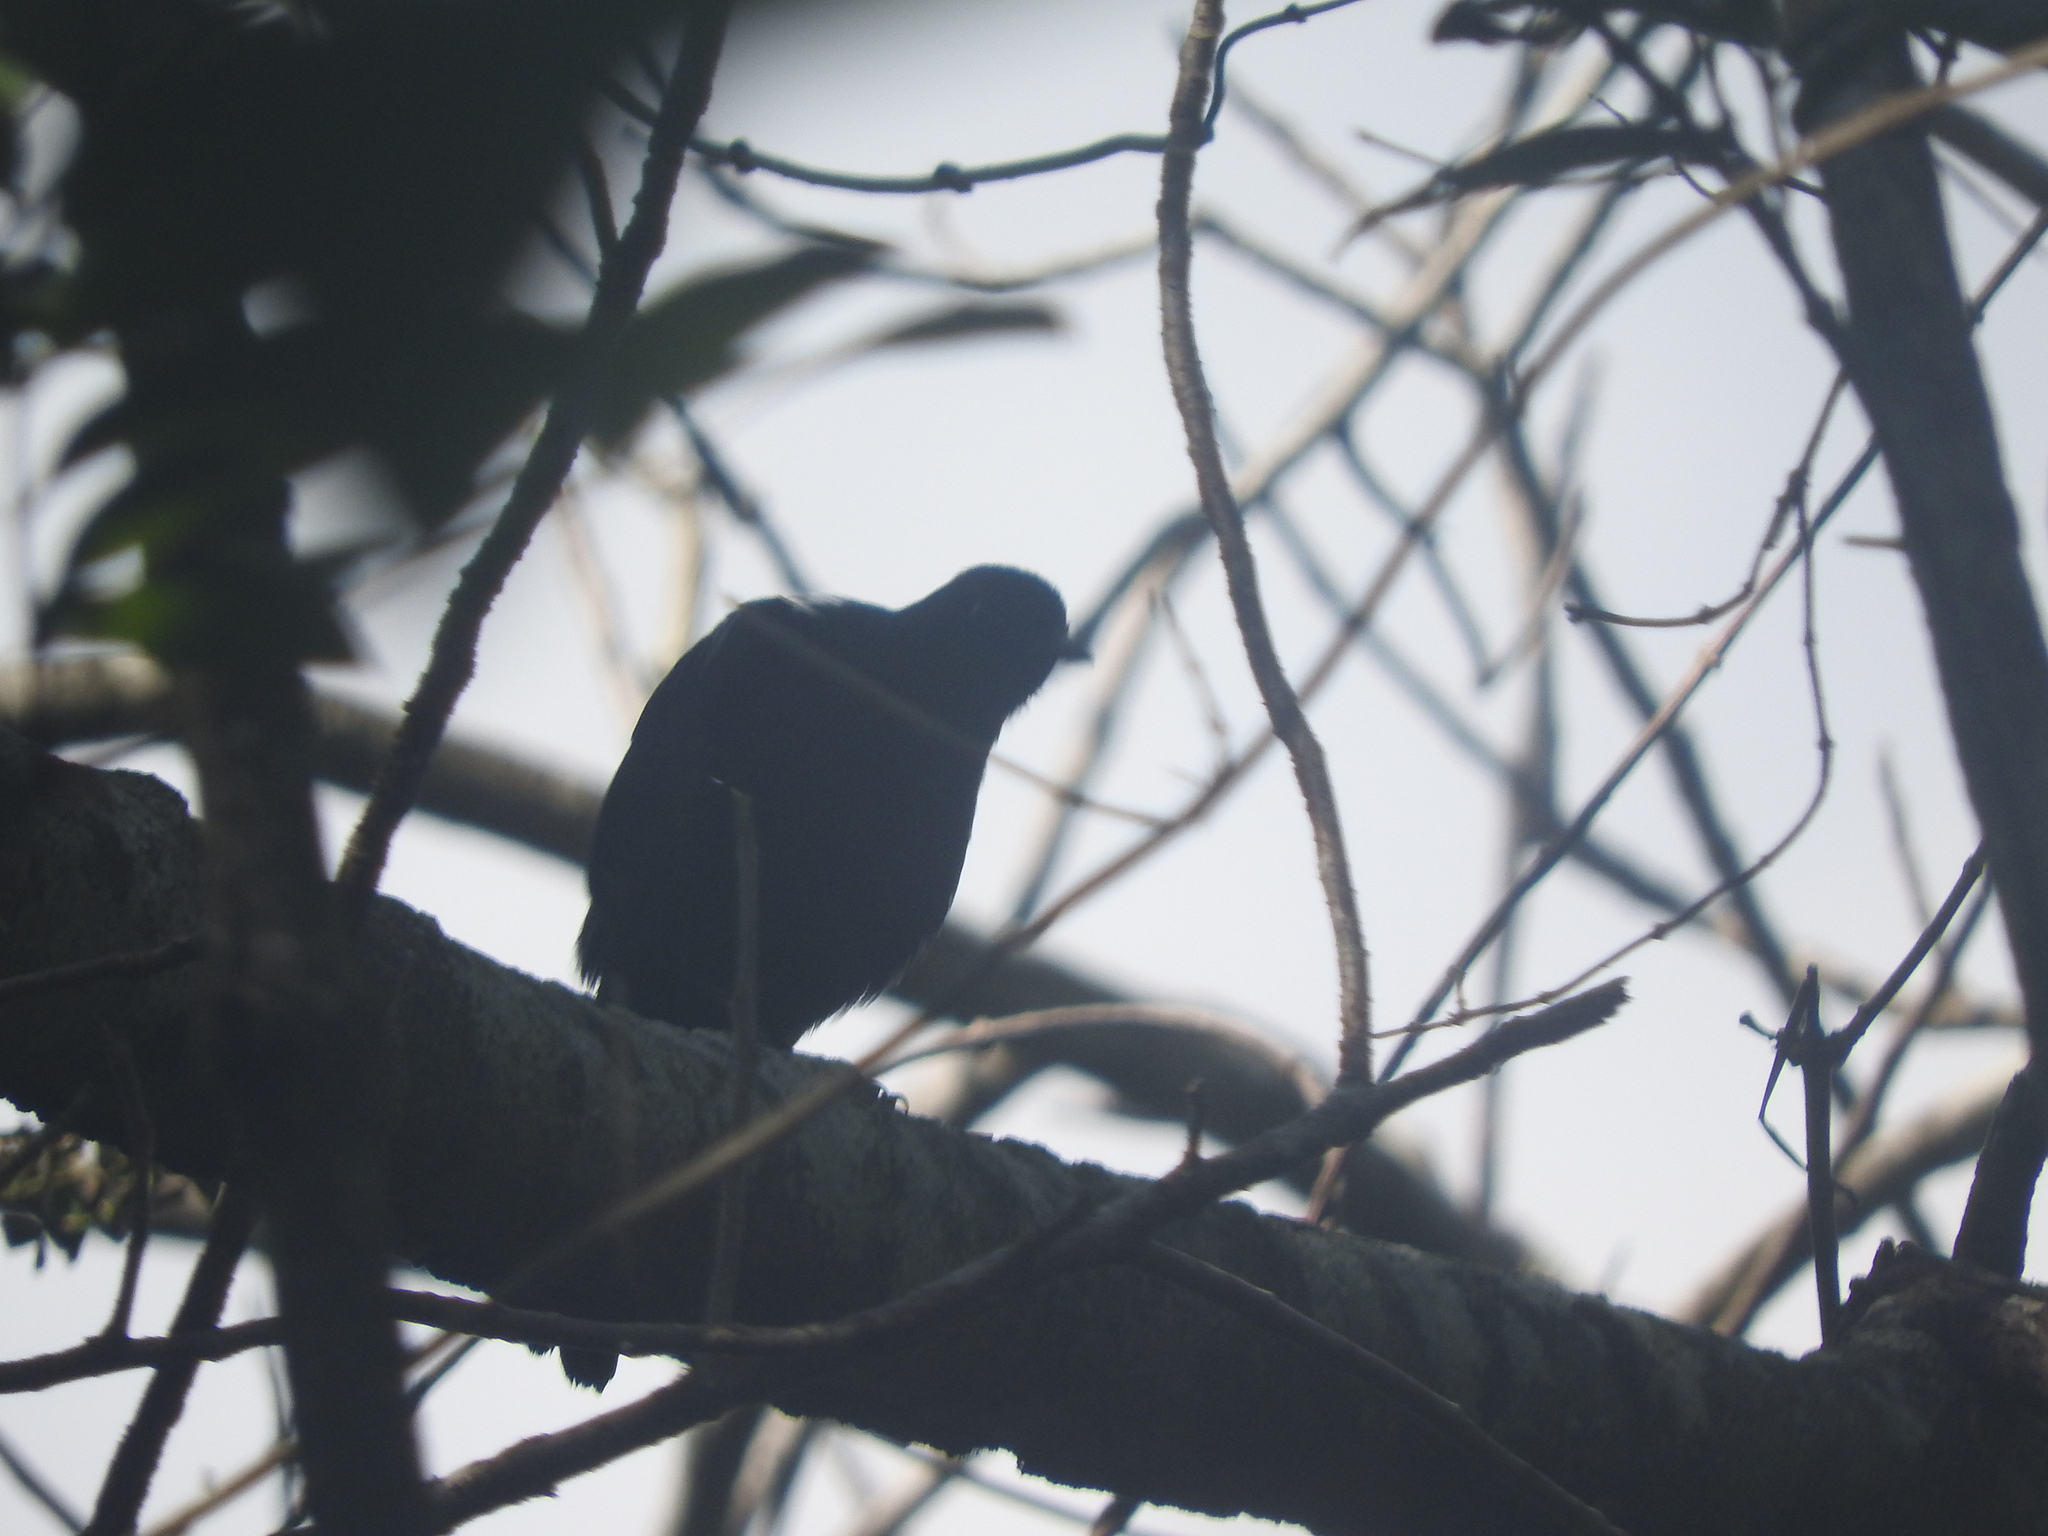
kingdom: Animalia
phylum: Chordata
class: Aves
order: Passeriformes
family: Mimidae
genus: Melanoptila
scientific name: Melanoptila glabrirostris
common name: Black catbird
